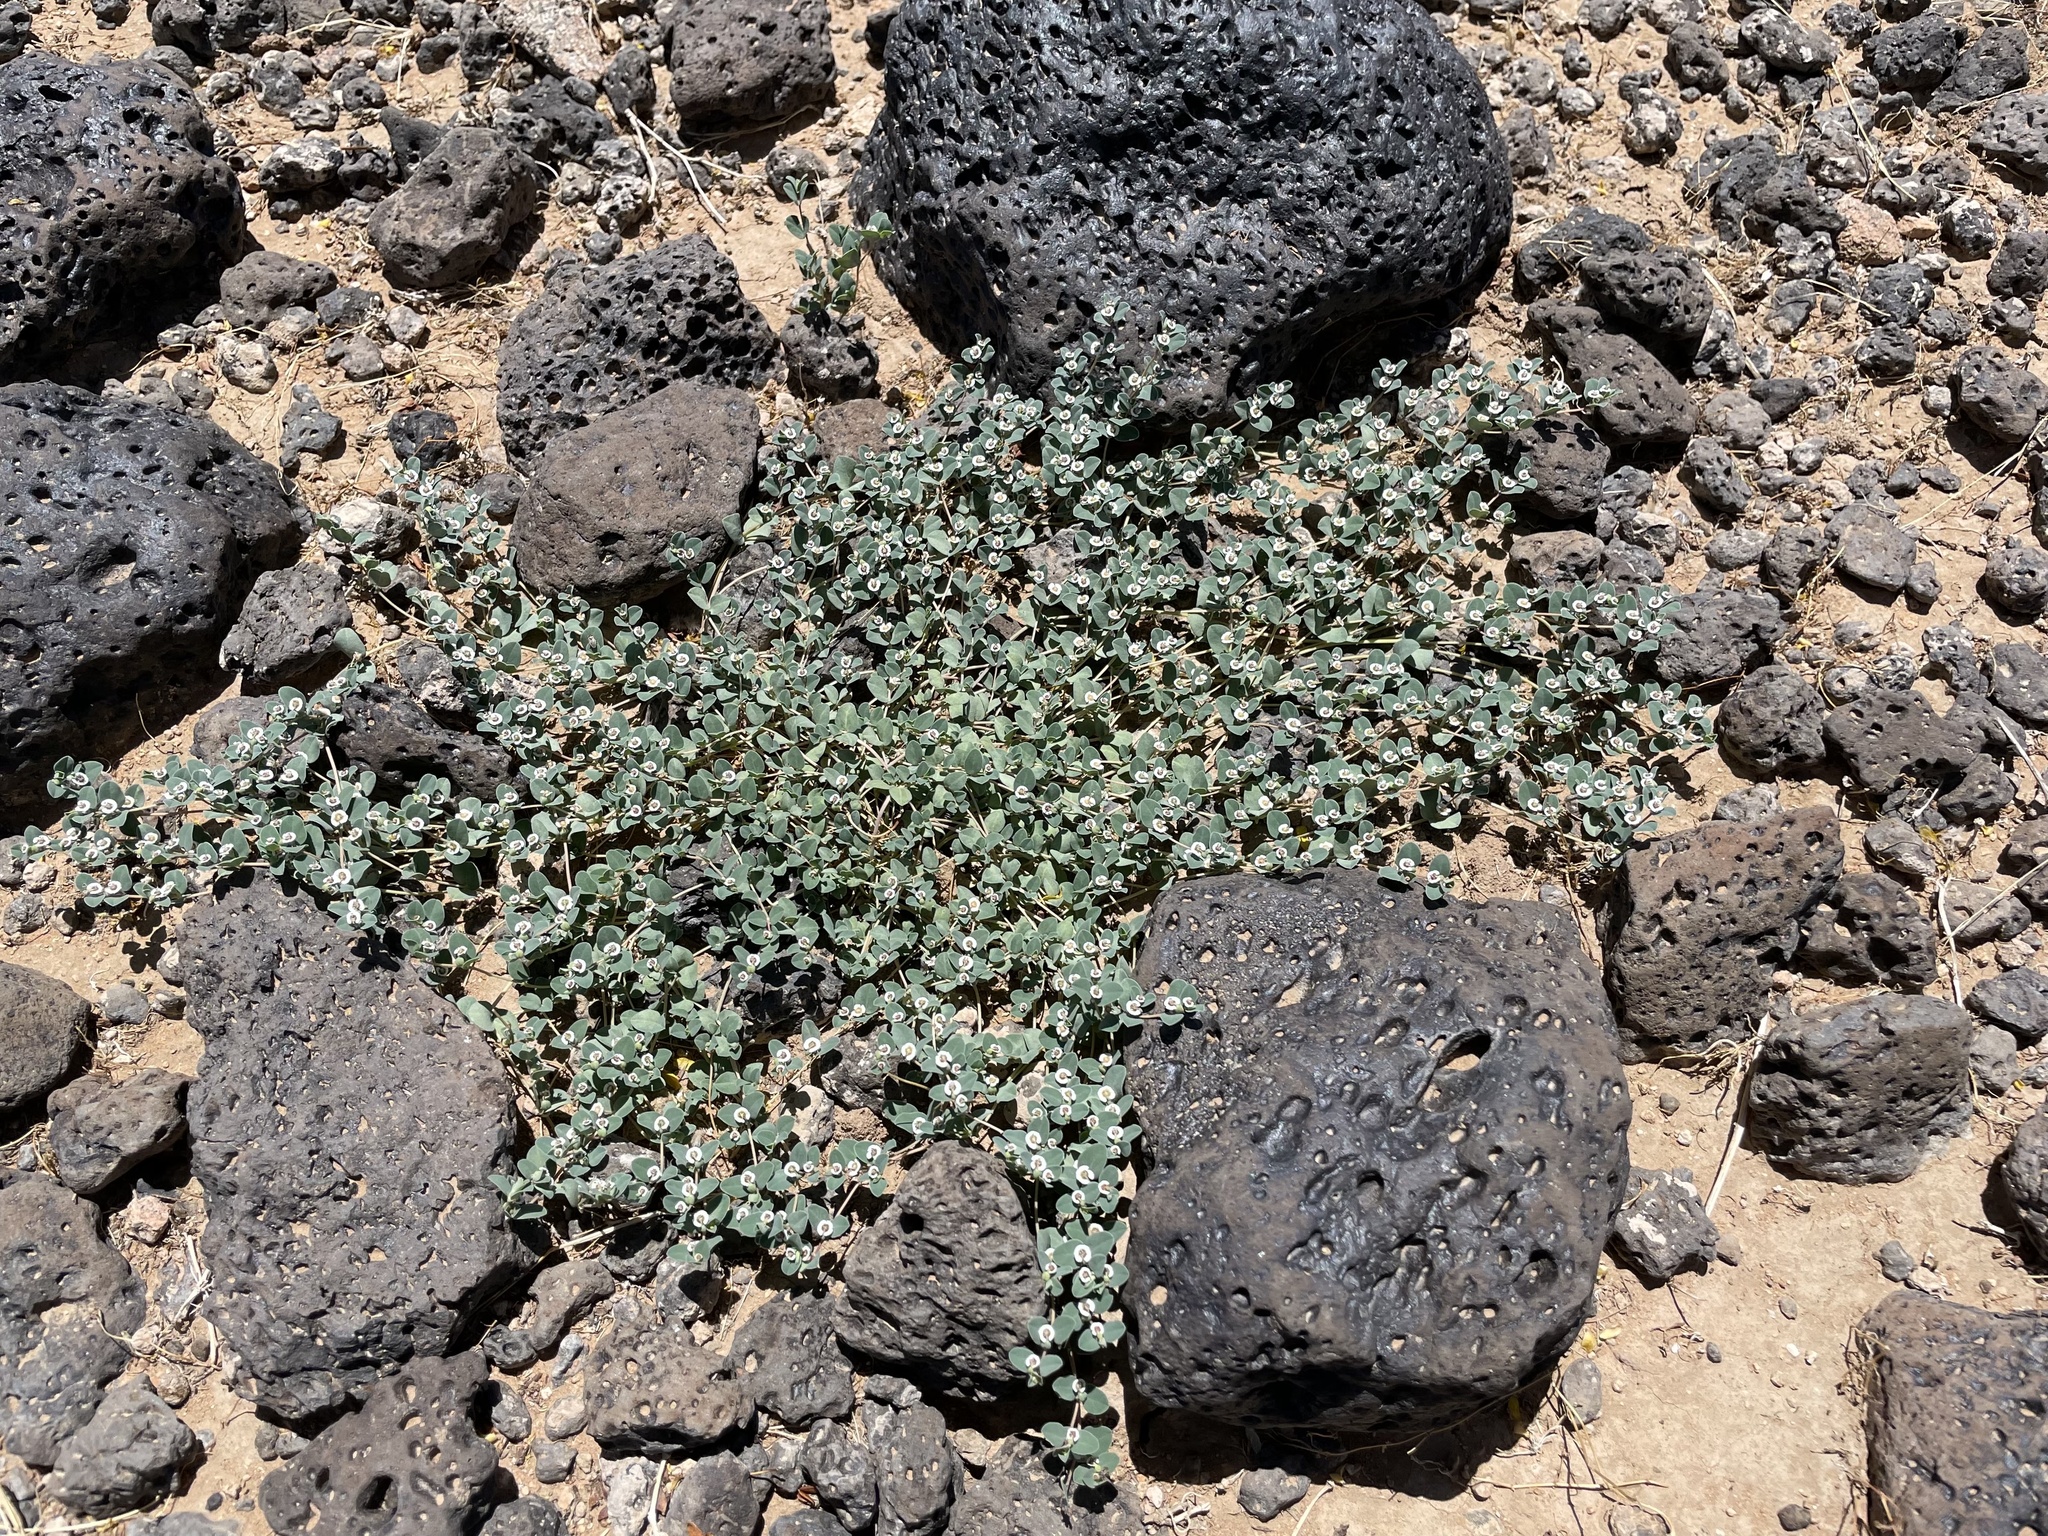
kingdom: Plantae
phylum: Tracheophyta
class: Magnoliopsida
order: Malpighiales
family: Euphorbiaceae
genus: Euphorbia
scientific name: Euphorbia albomarginata
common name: Whitemargin sandmat
